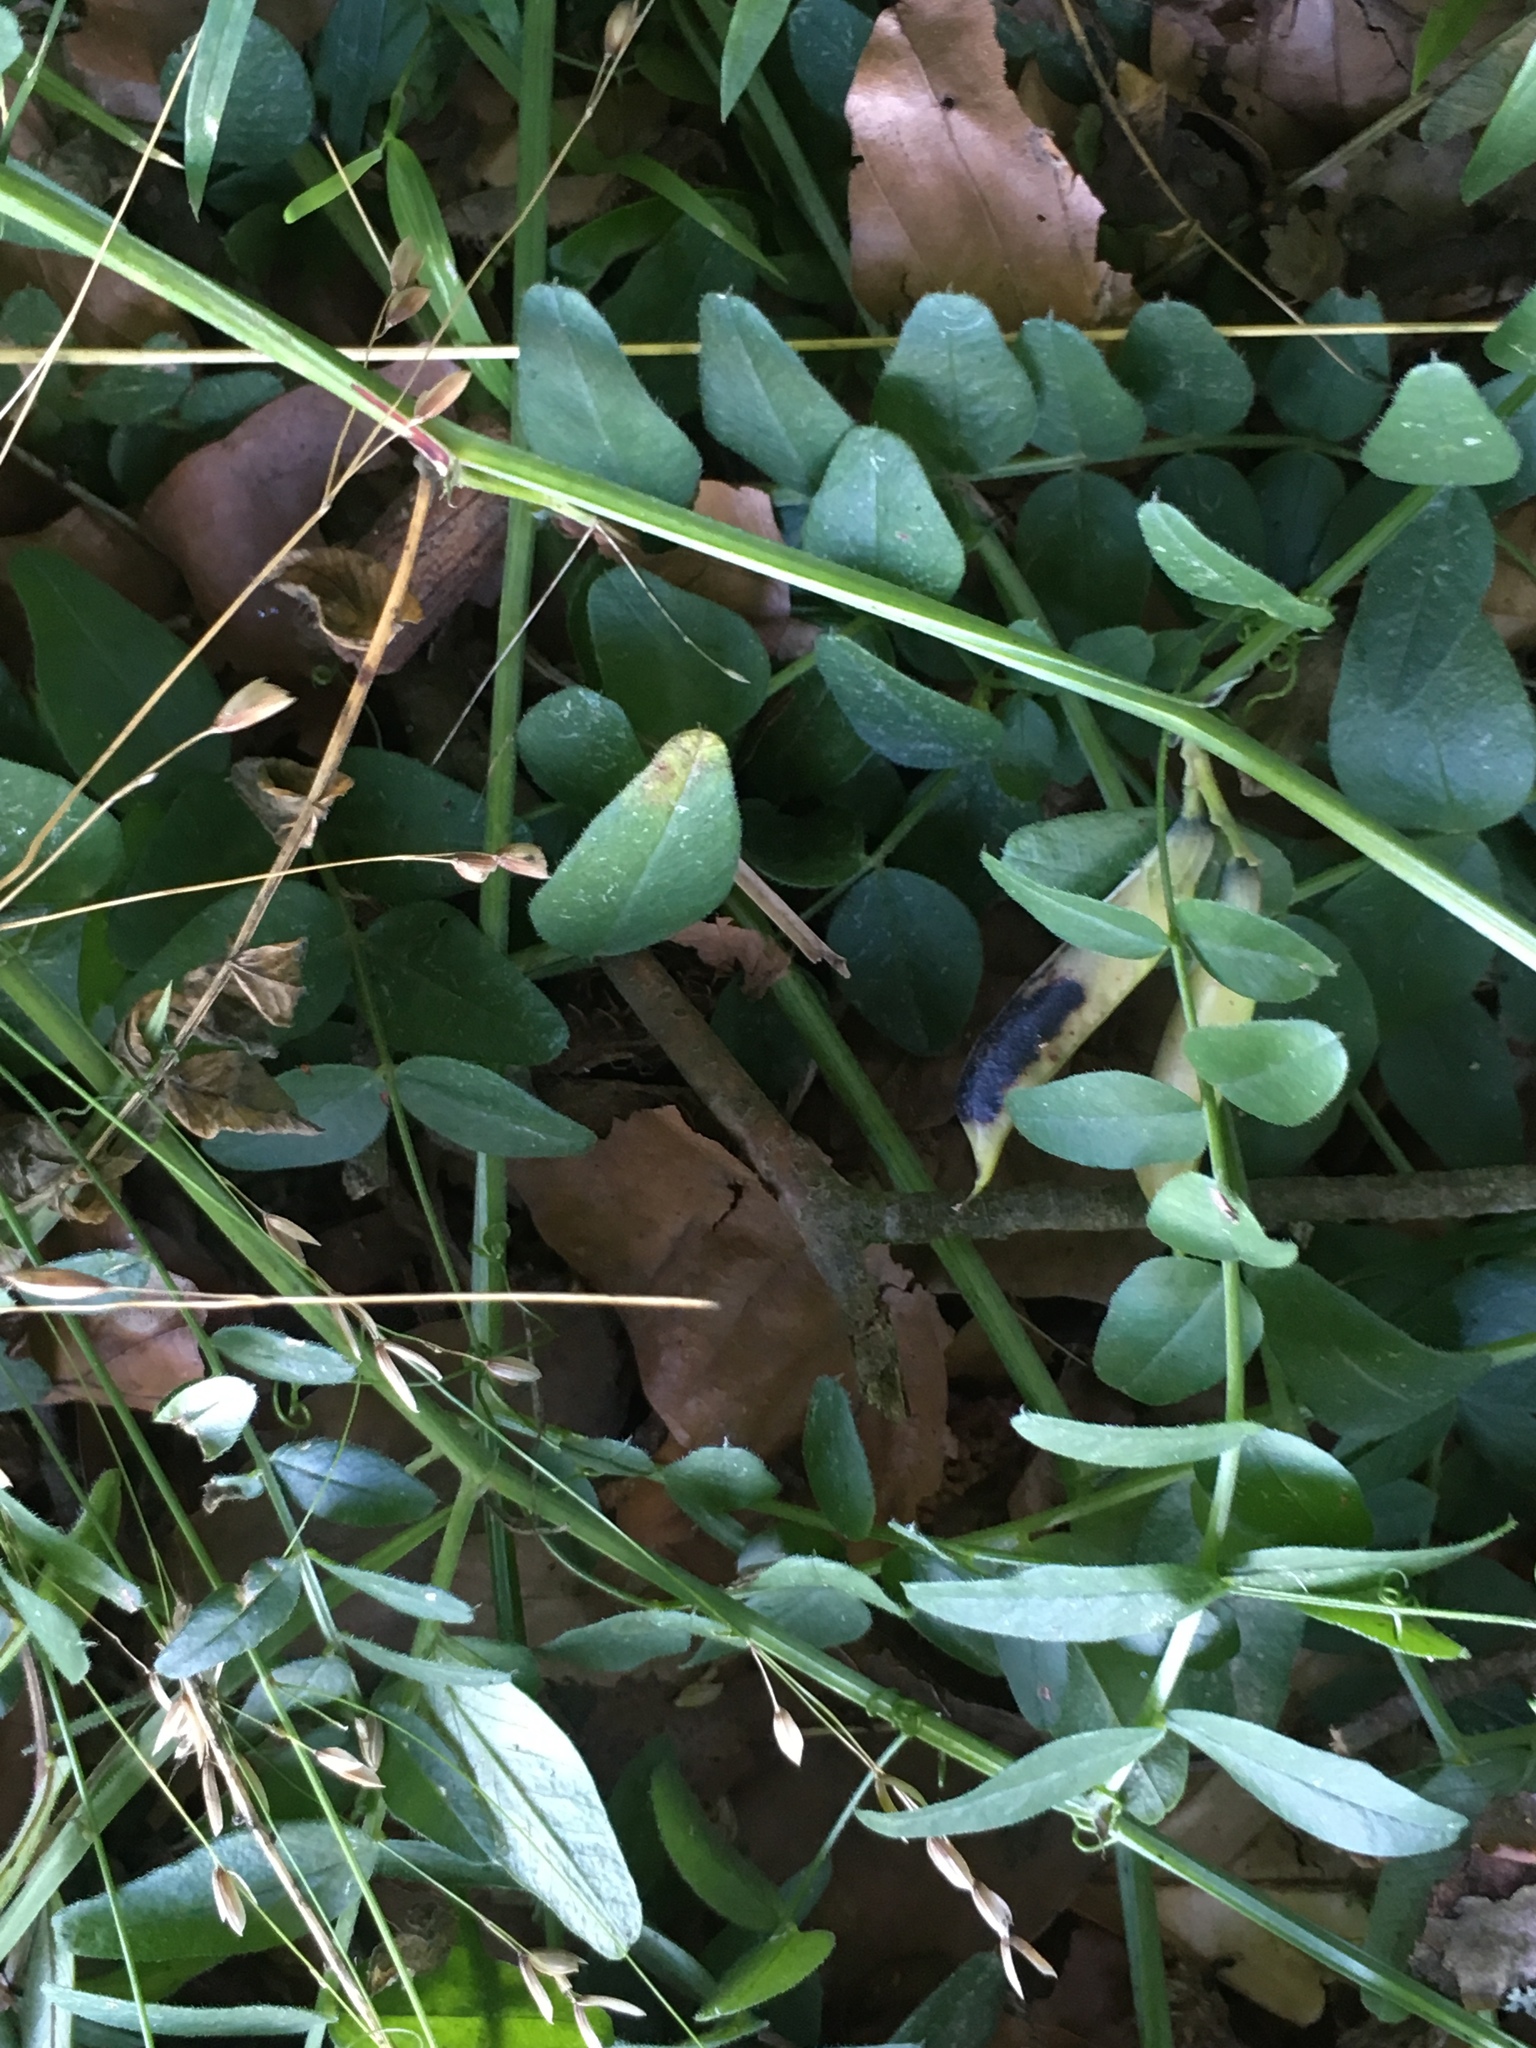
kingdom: Plantae
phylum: Tracheophyta
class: Magnoliopsida
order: Fabales
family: Fabaceae
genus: Vicia
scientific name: Vicia sepium
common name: Bush vetch
